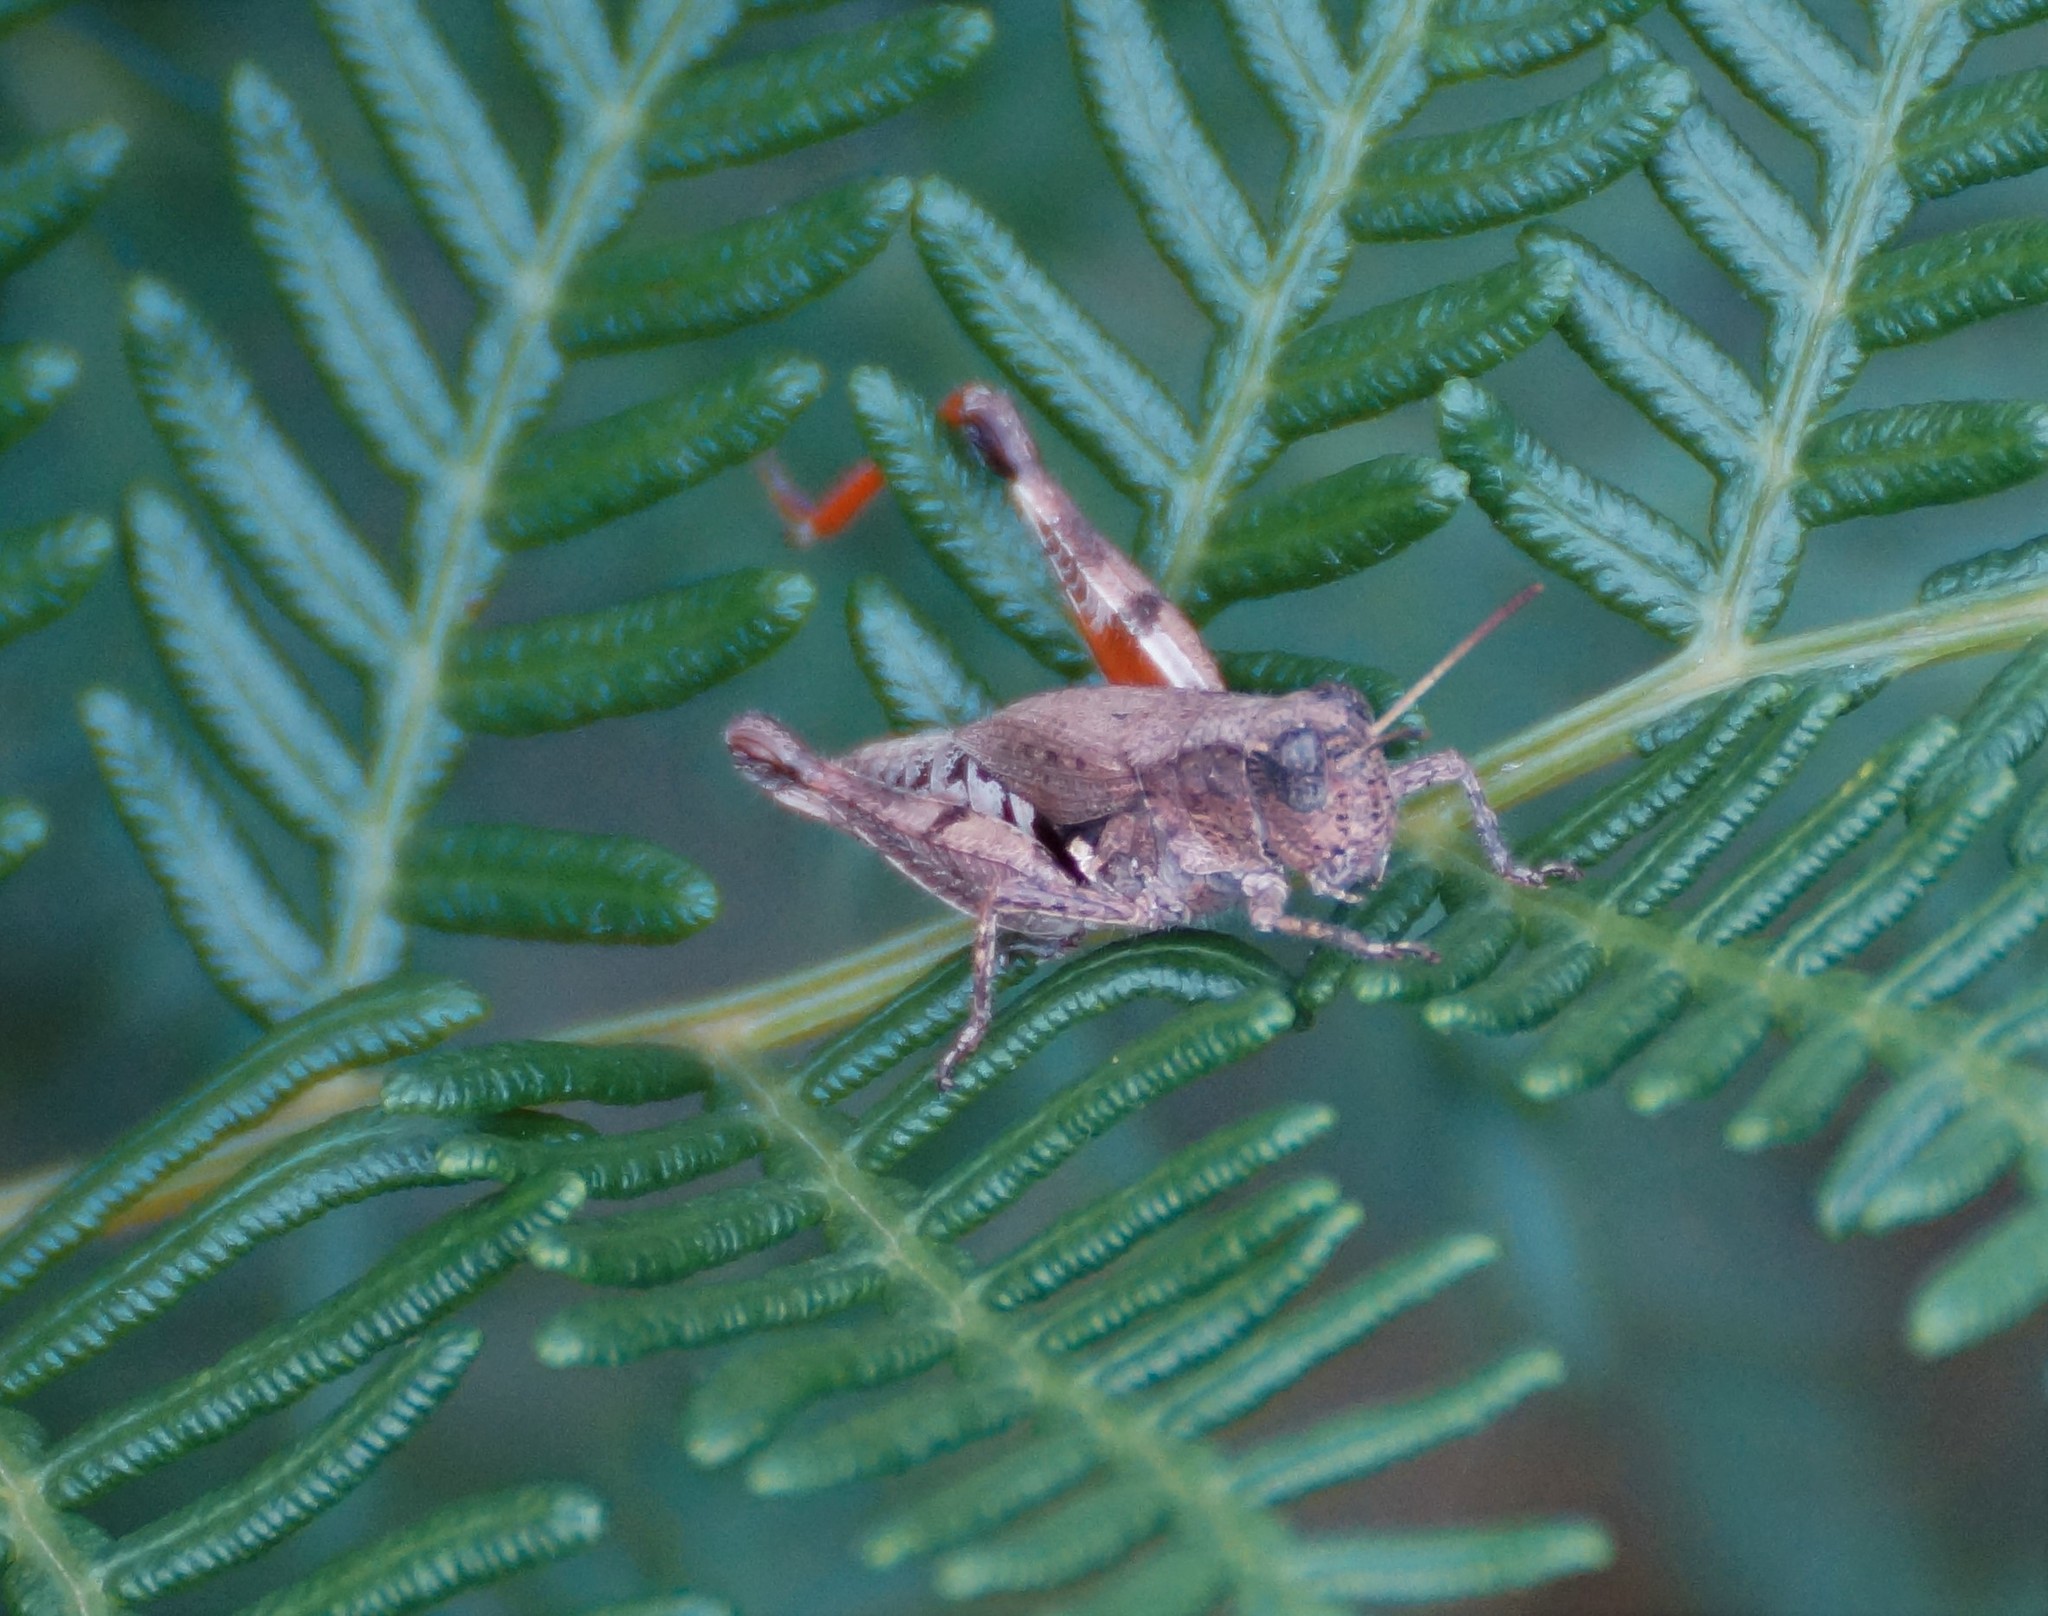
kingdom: Animalia
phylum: Arthropoda
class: Insecta
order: Orthoptera
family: Acrididae
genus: Phaulacridium
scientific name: Phaulacridium vittatum
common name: Wingless grasshopper
